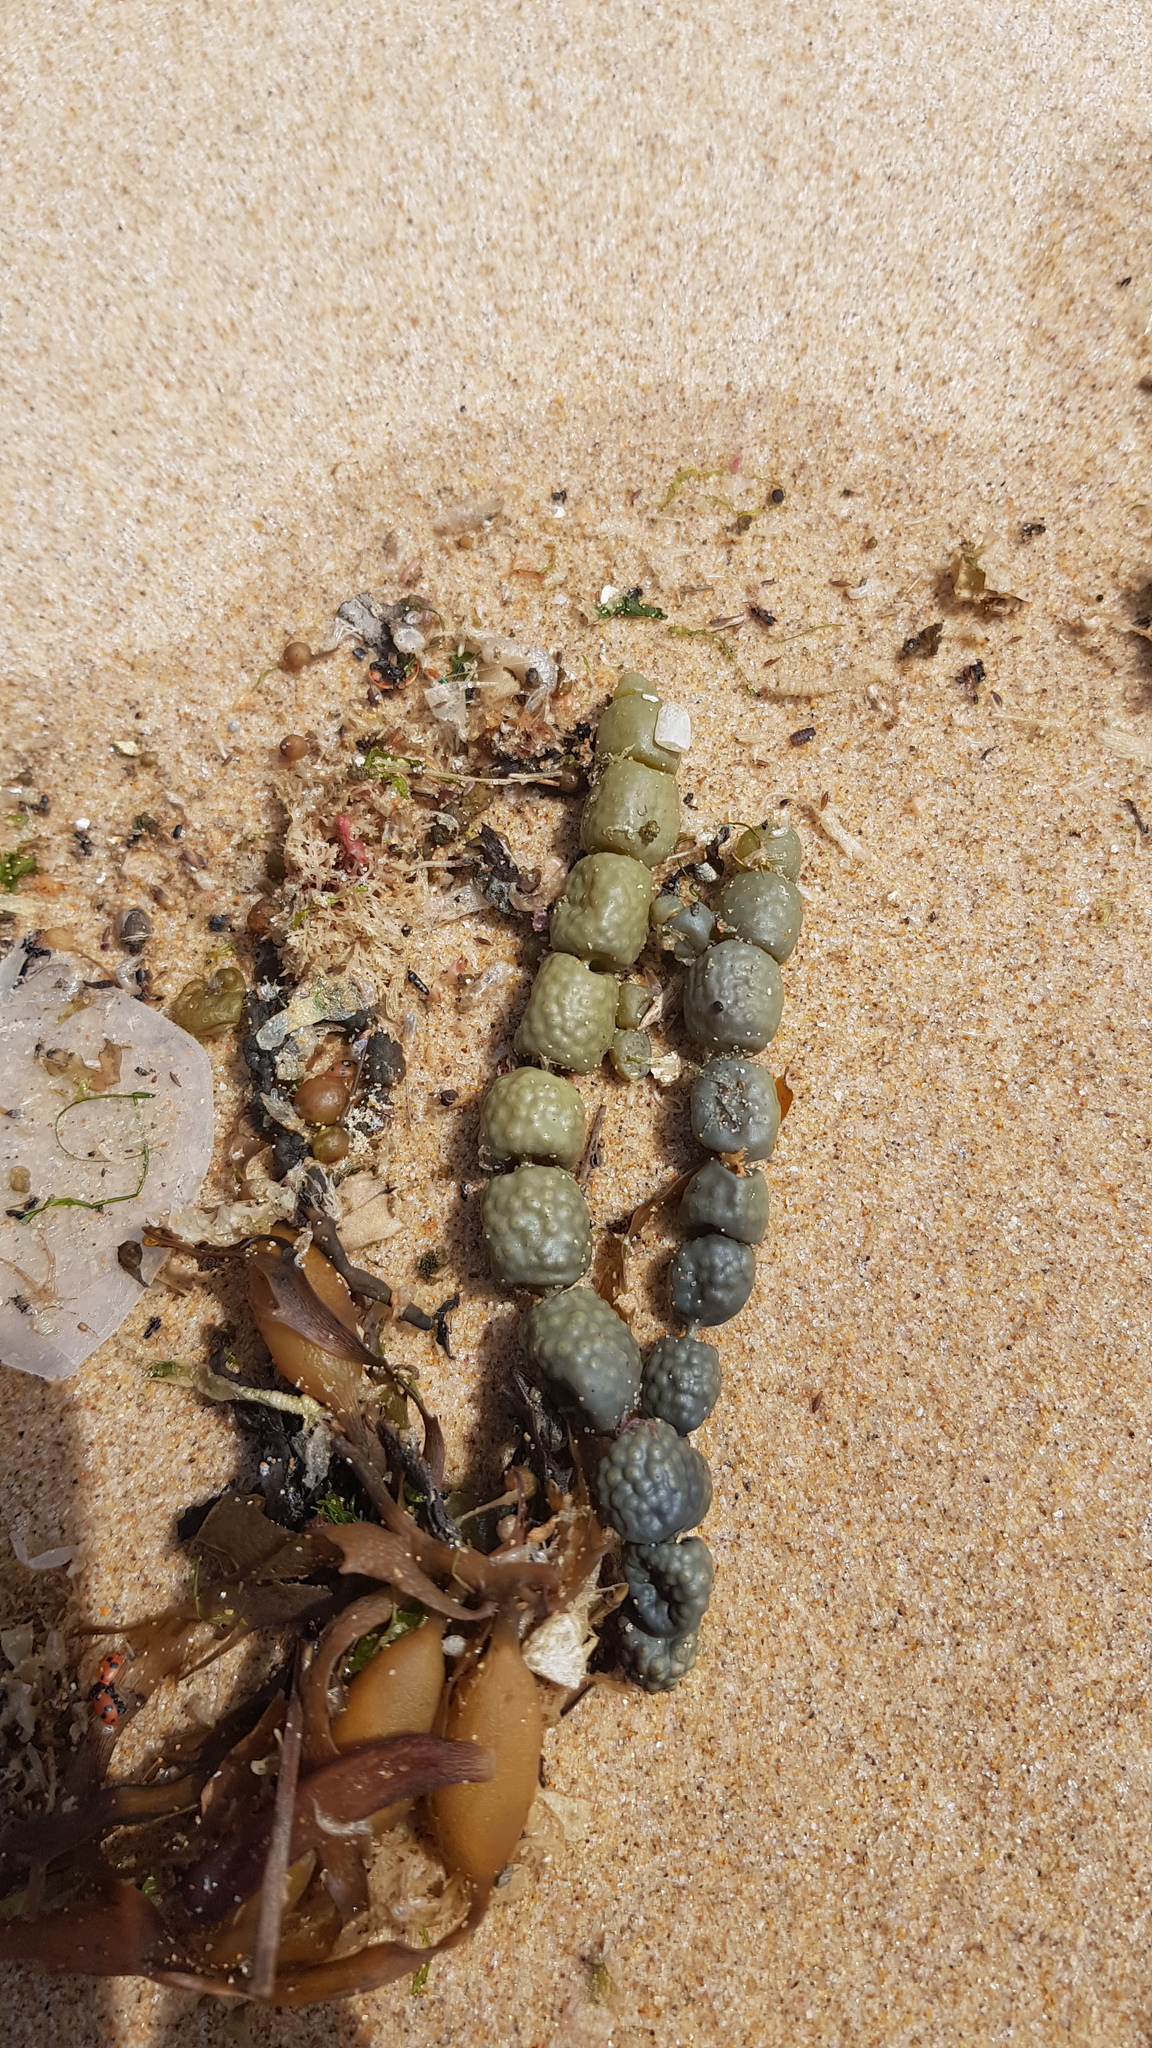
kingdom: Chromista
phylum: Ochrophyta
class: Phaeophyceae
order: Fucales
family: Hormosiraceae
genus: Hormosira
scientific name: Hormosira banksii
